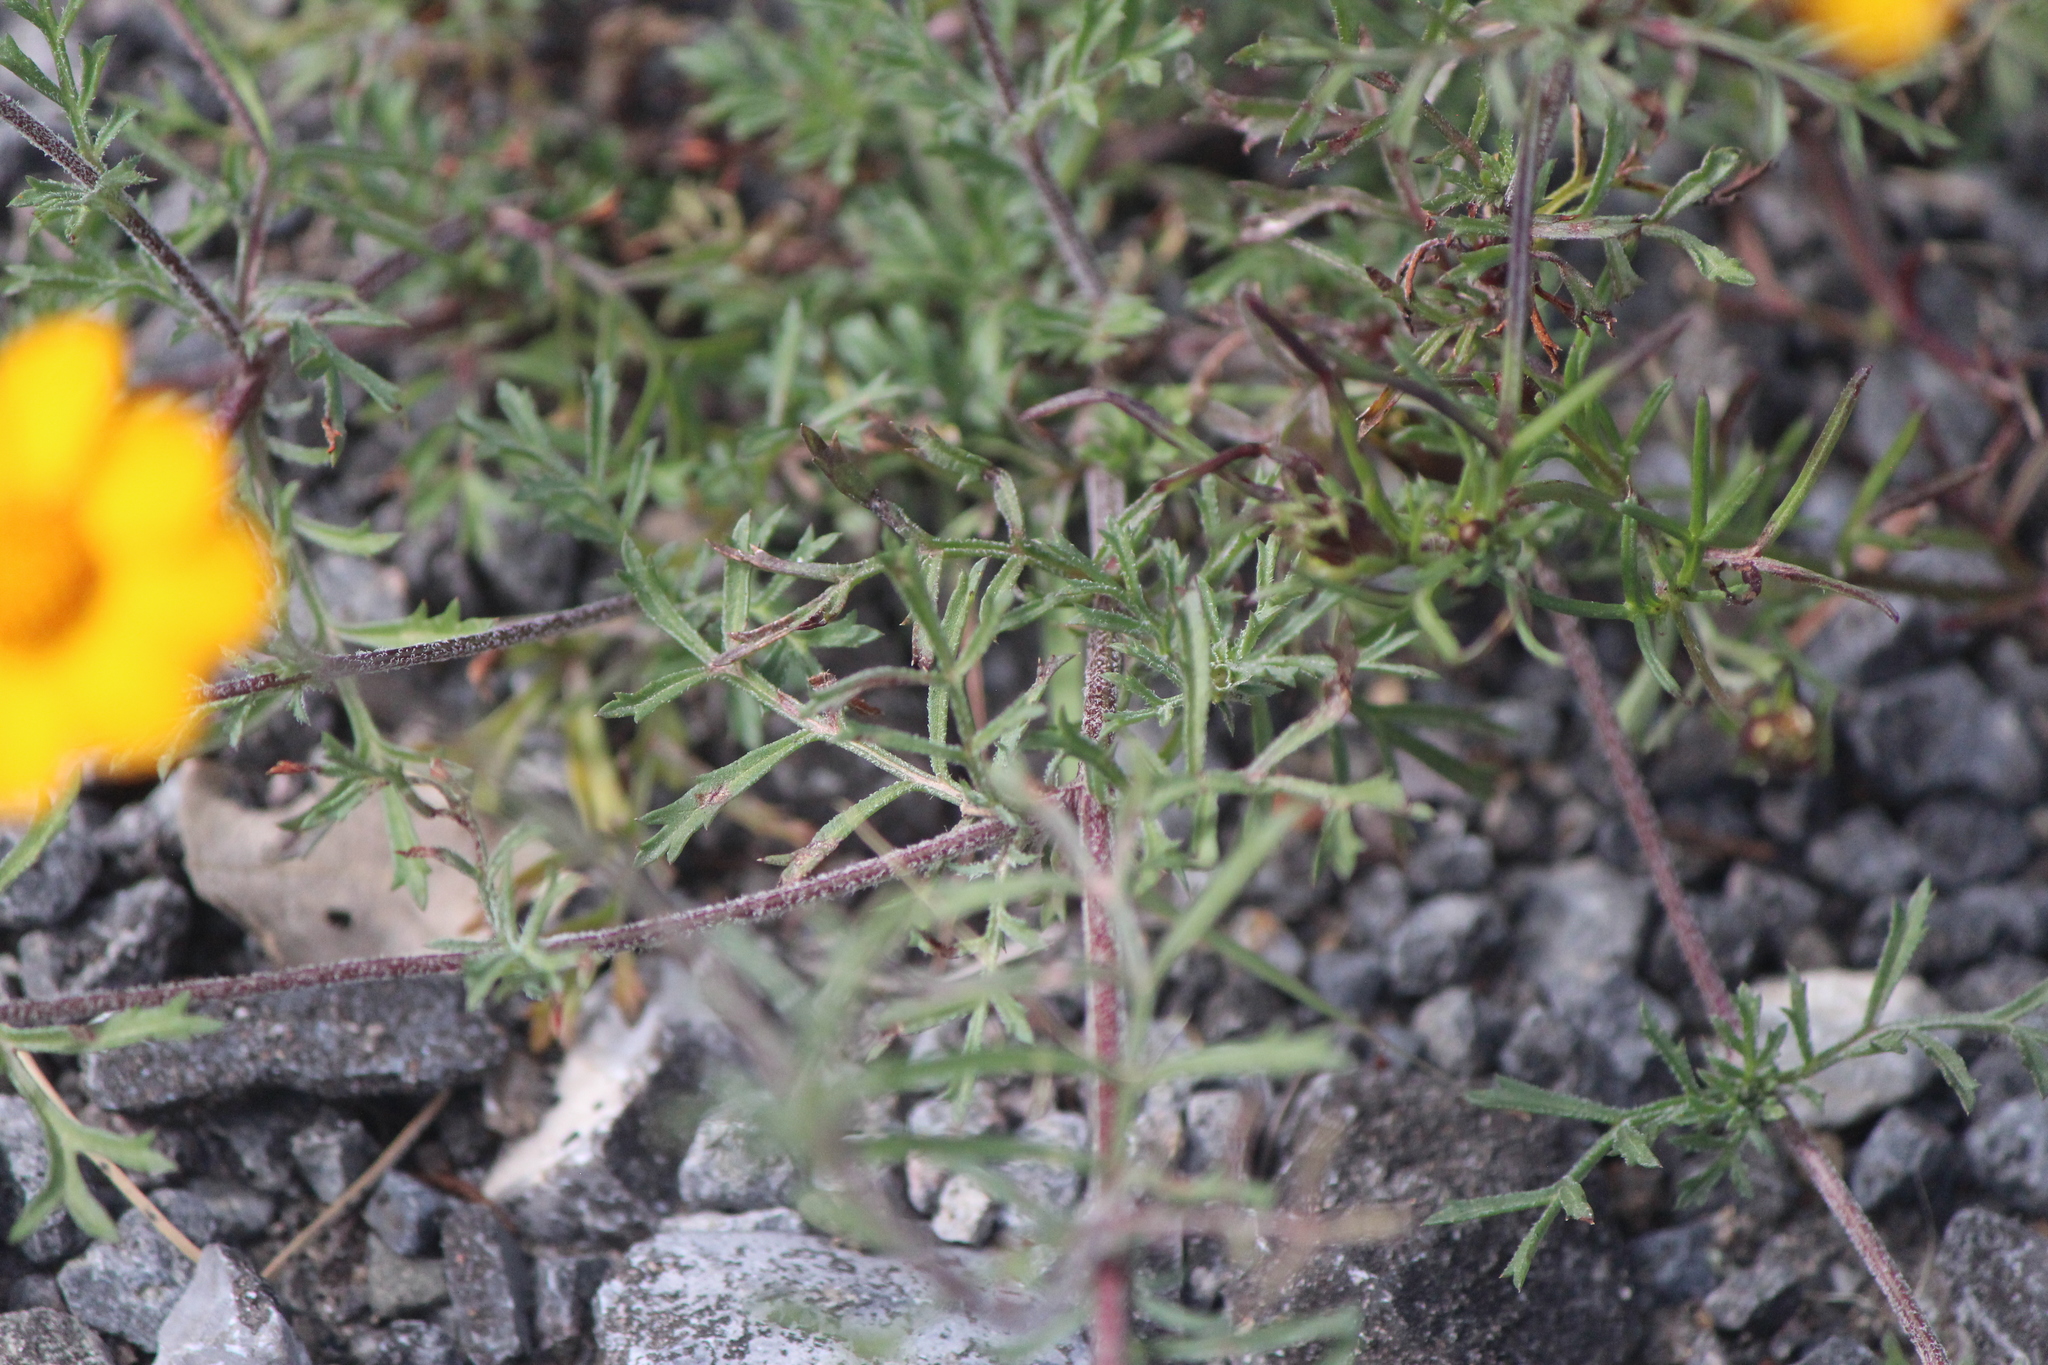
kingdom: Plantae
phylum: Tracheophyta
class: Magnoliopsida
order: Asterales
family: Asteraceae
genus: Dyssodia
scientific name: Dyssodia tagetiflora
